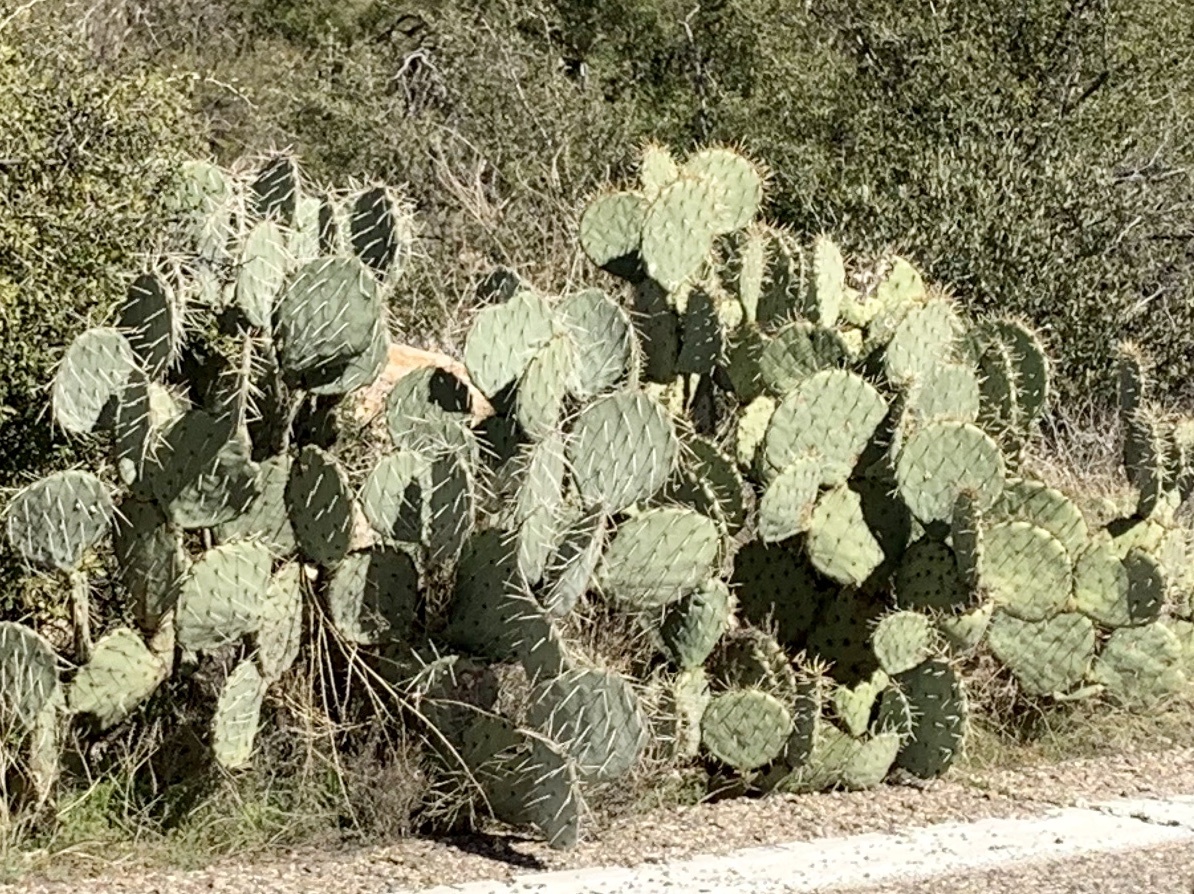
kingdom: Plantae
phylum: Tracheophyta
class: Magnoliopsida
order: Caryophyllales
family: Cactaceae
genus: Opuntia
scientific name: Opuntia engelmannii
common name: Cactus-apple
